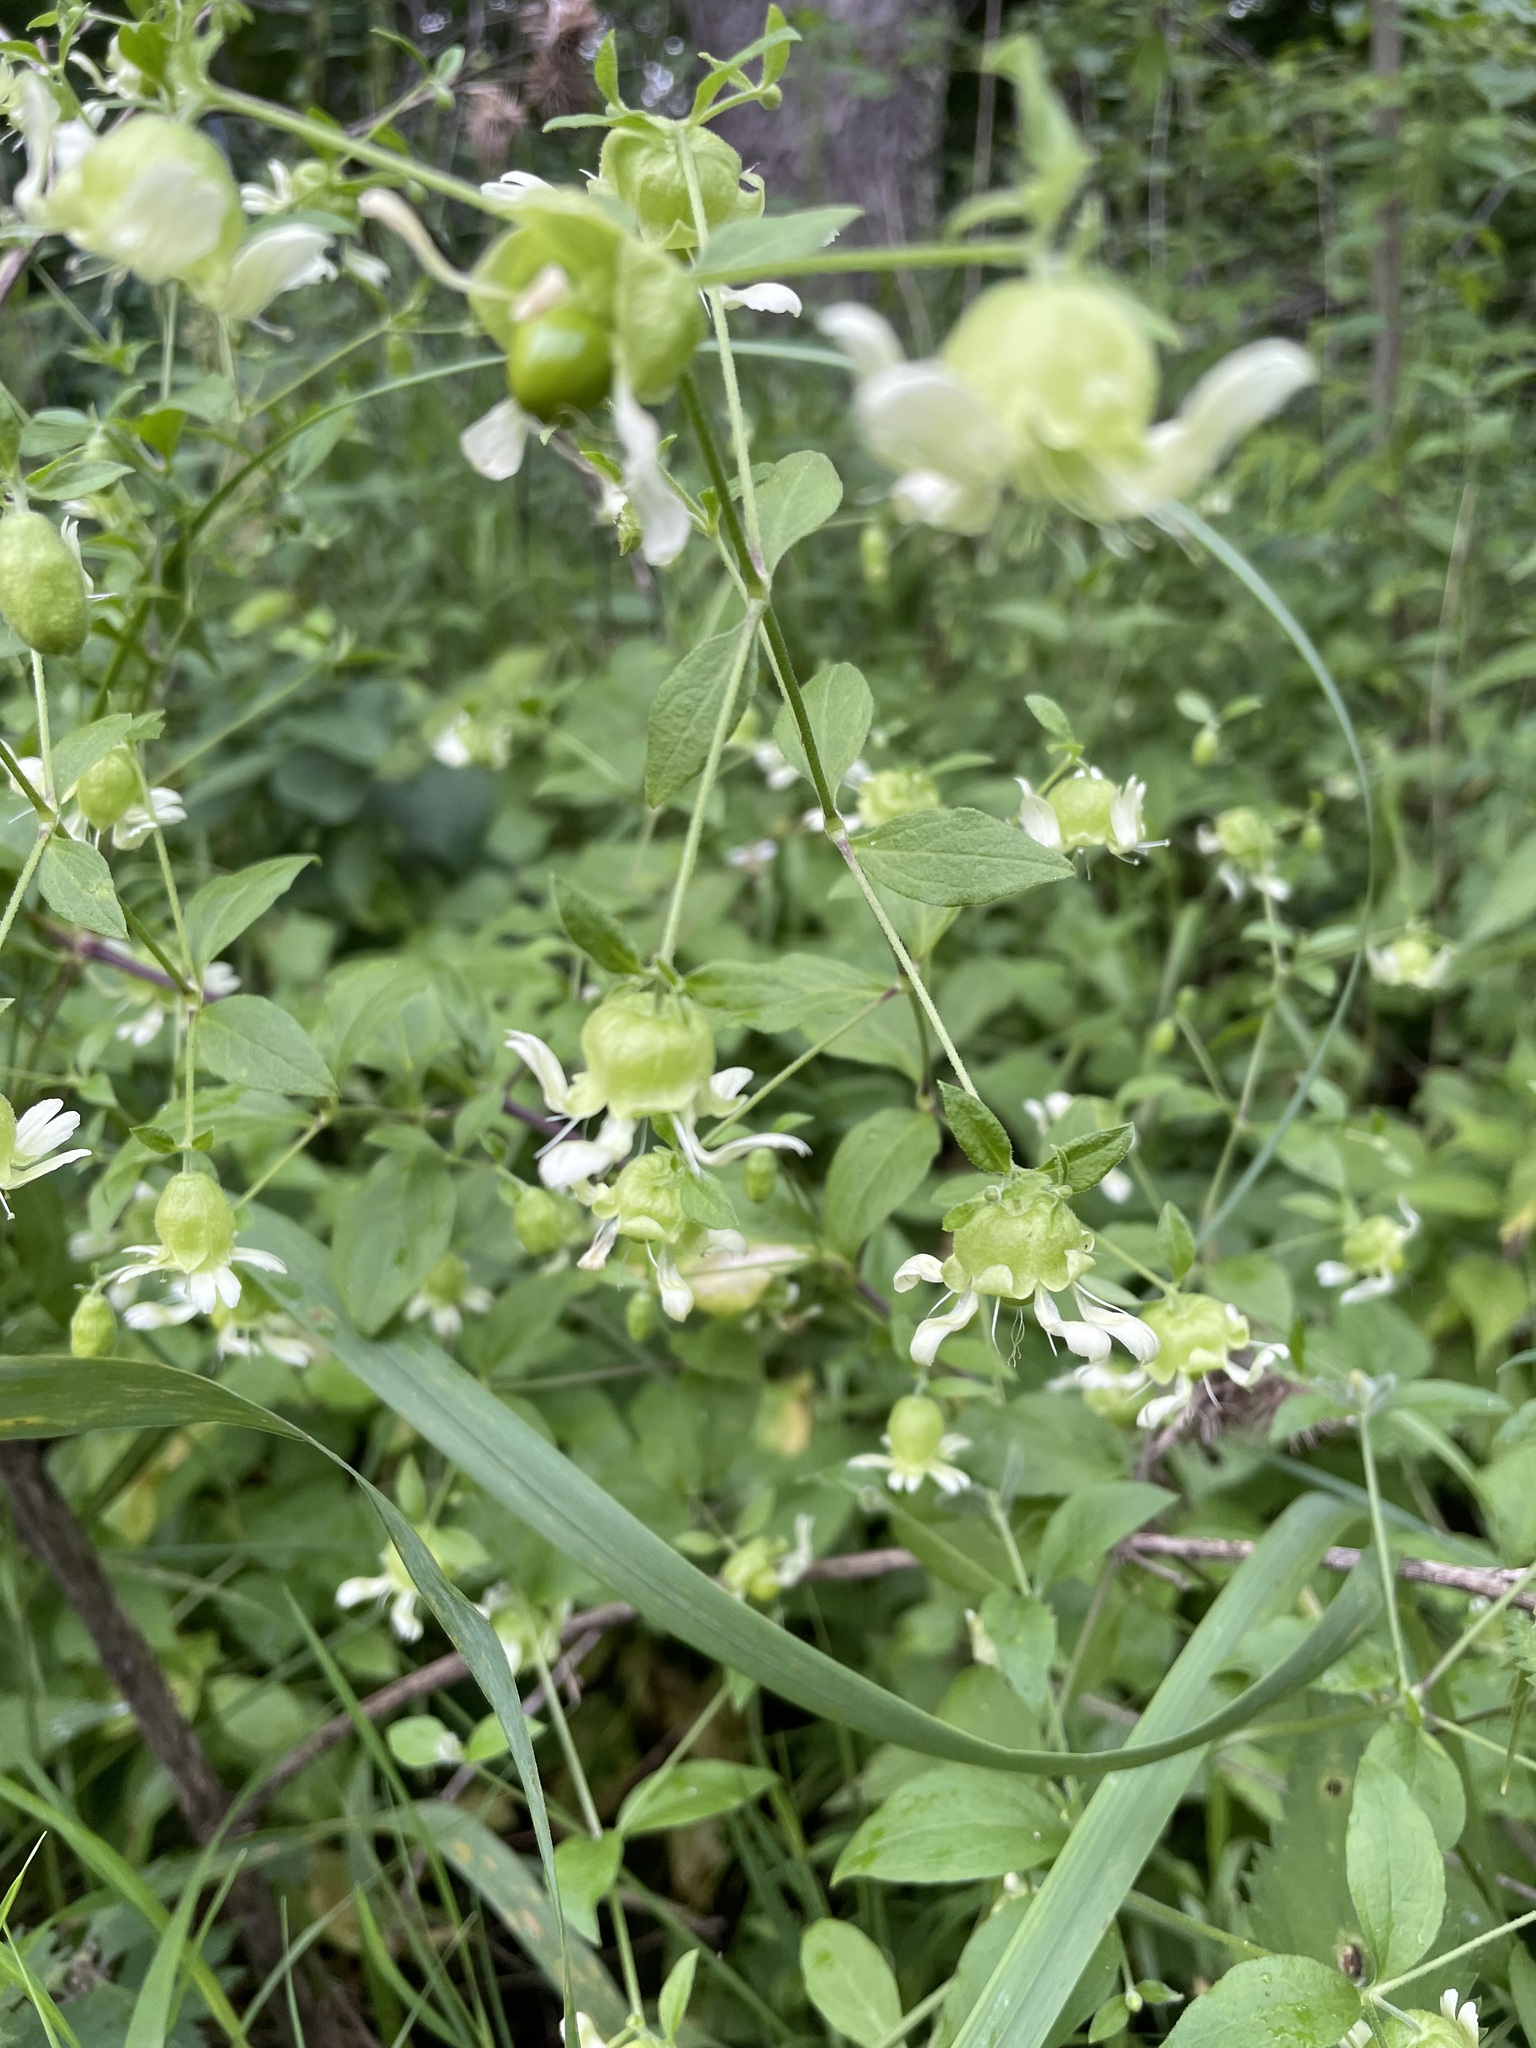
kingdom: Plantae
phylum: Tracheophyta
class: Magnoliopsida
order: Caryophyllales
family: Caryophyllaceae
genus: Silene
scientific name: Silene baccifera
